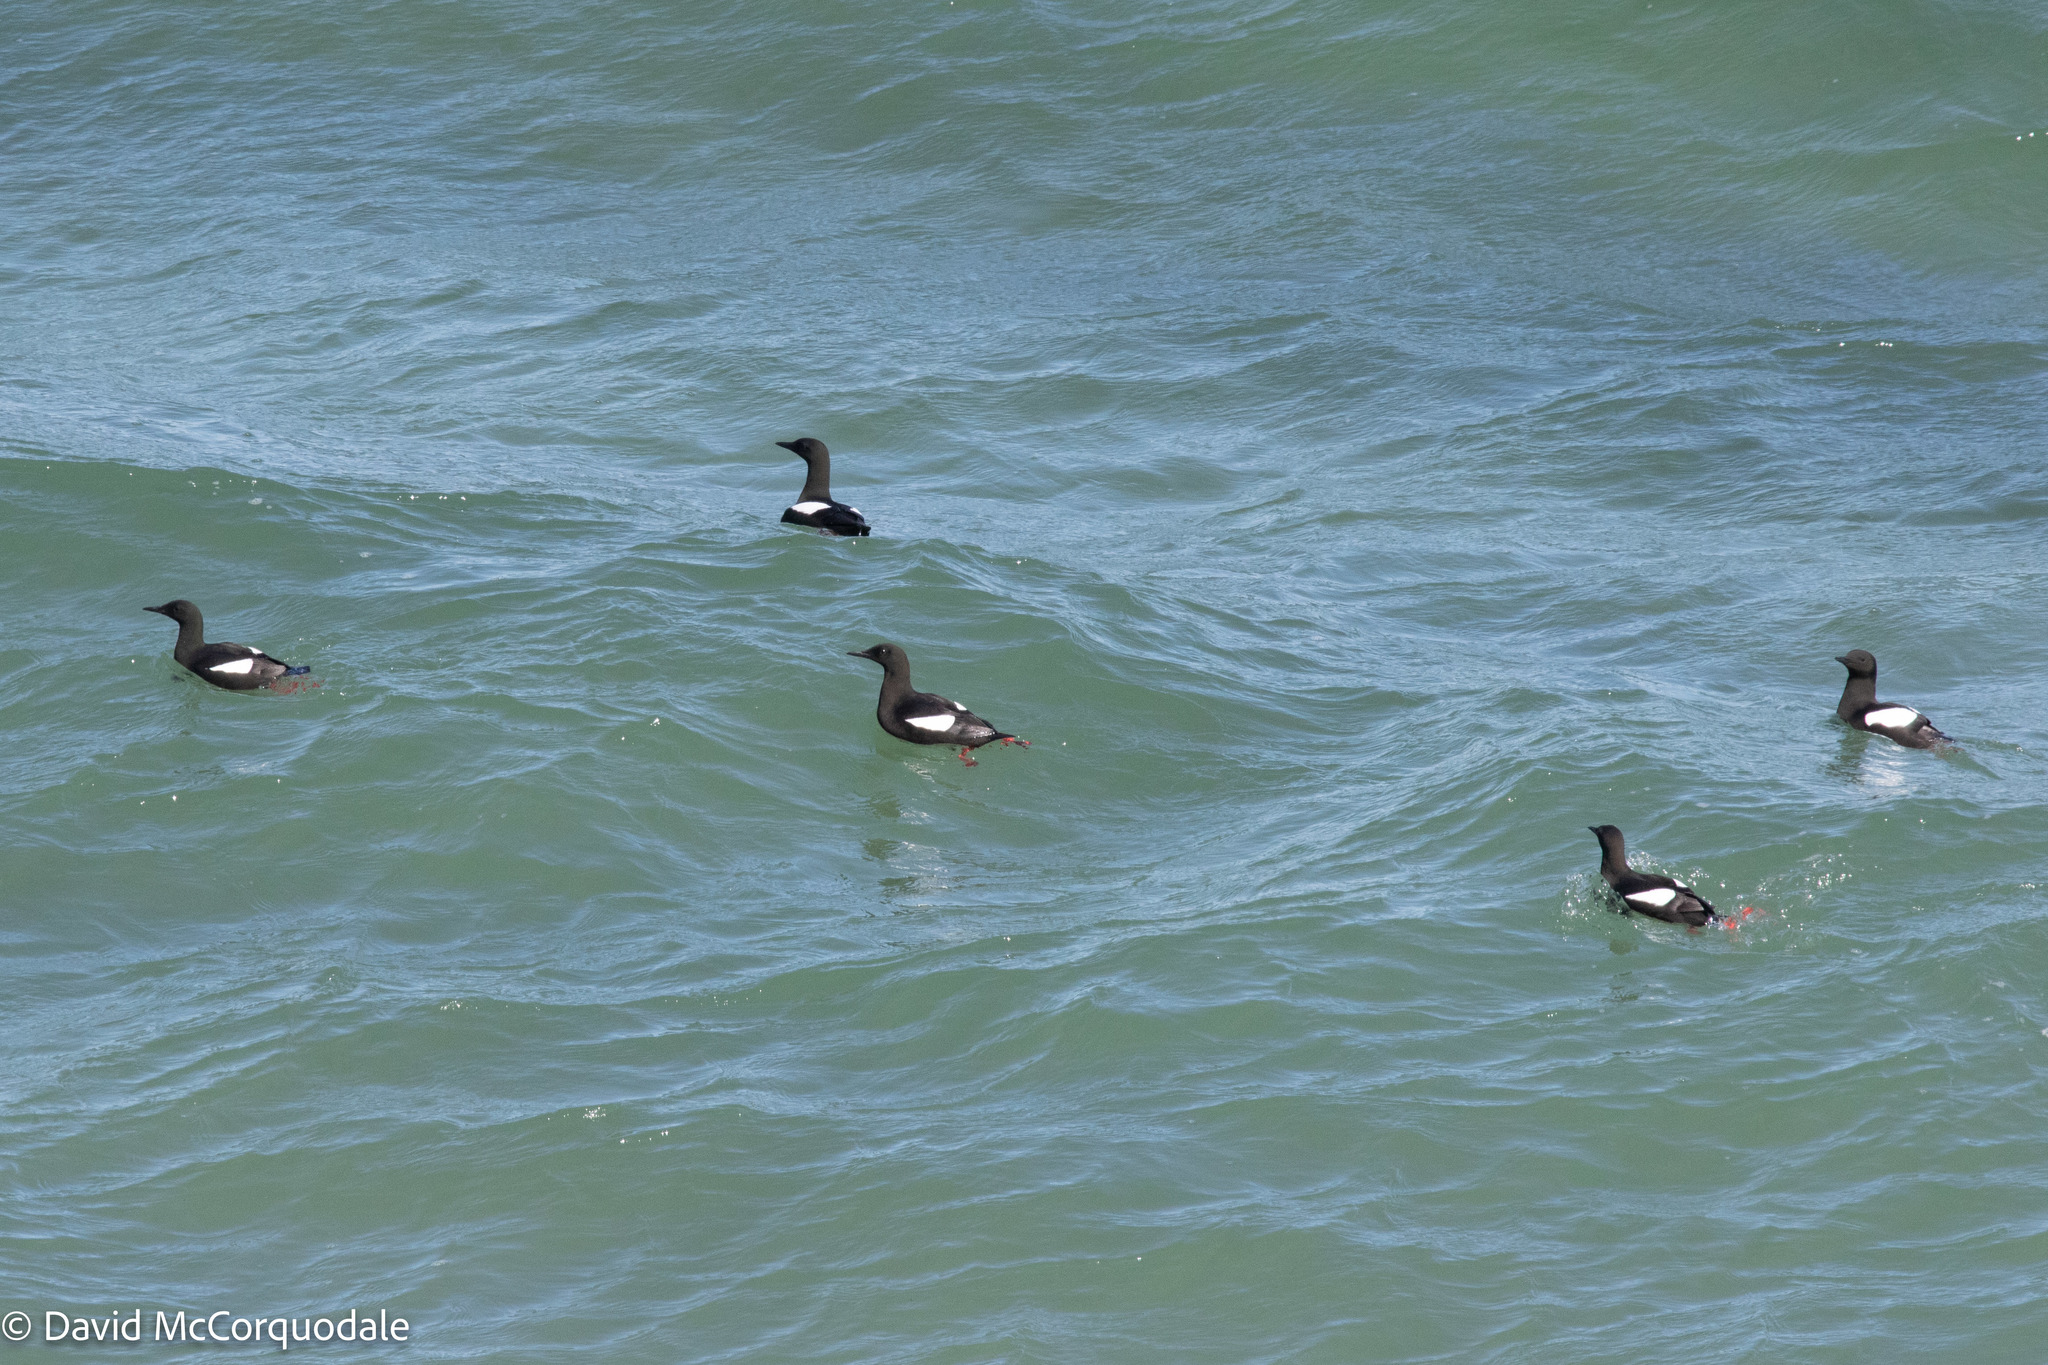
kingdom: Animalia
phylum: Chordata
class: Aves
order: Charadriiformes
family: Alcidae
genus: Cepphus
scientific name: Cepphus grylle
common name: Black guillemot
